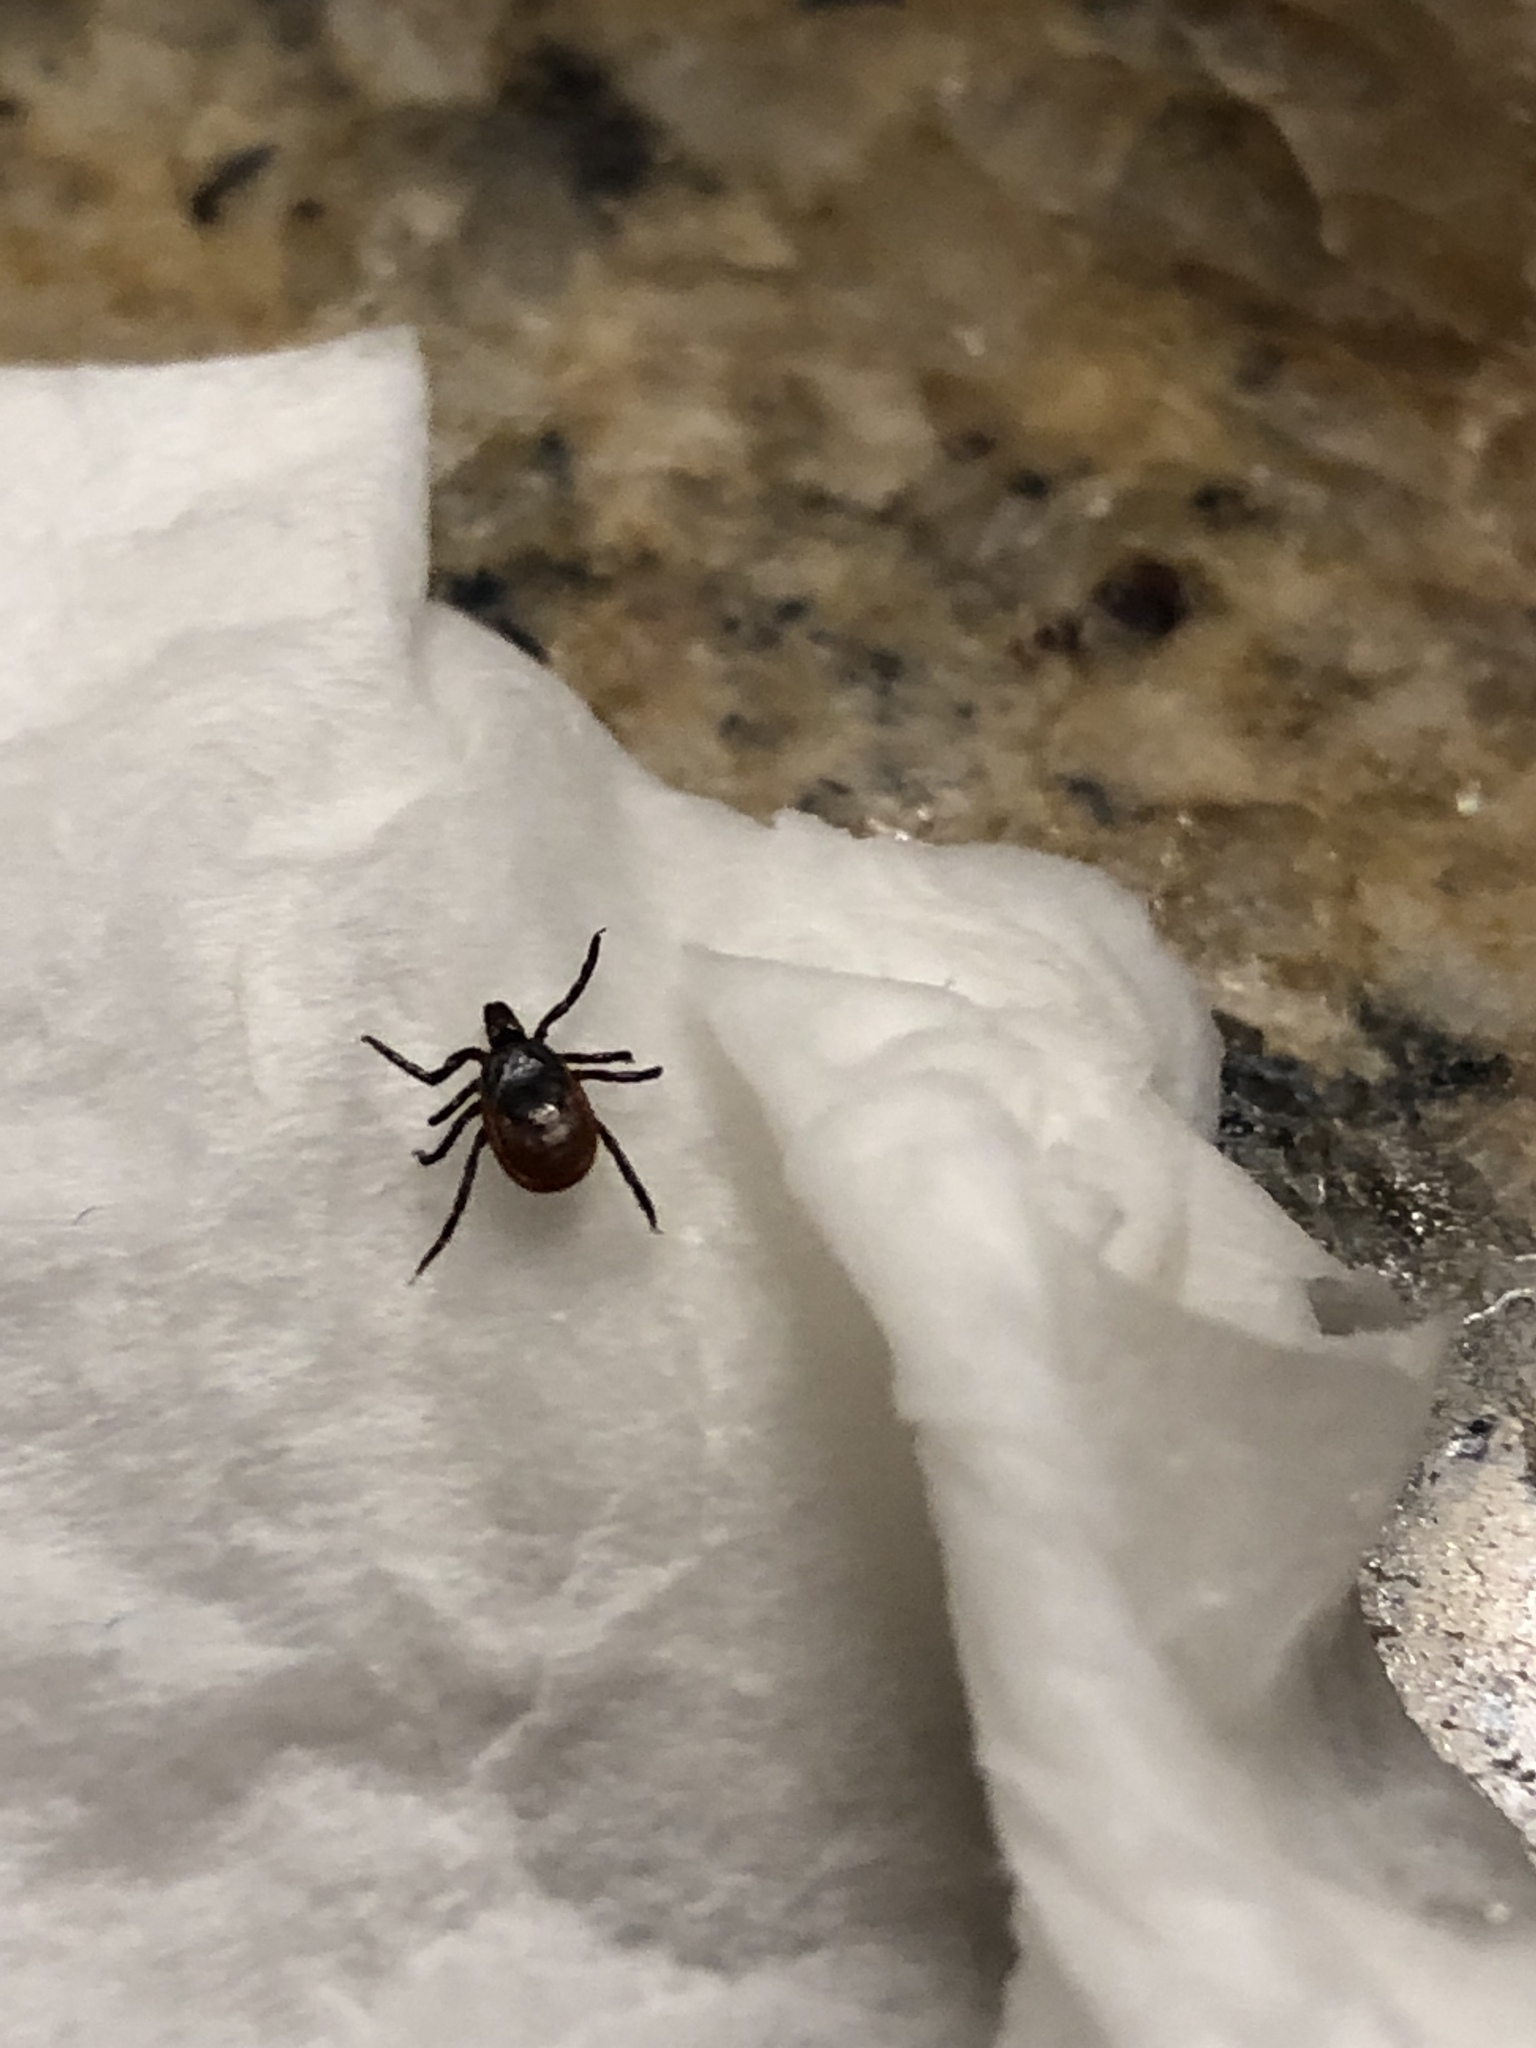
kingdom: Animalia
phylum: Arthropoda
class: Arachnida
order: Ixodida
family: Ixodidae
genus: Ixodes
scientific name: Ixodes scapularis
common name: Black legged tick
